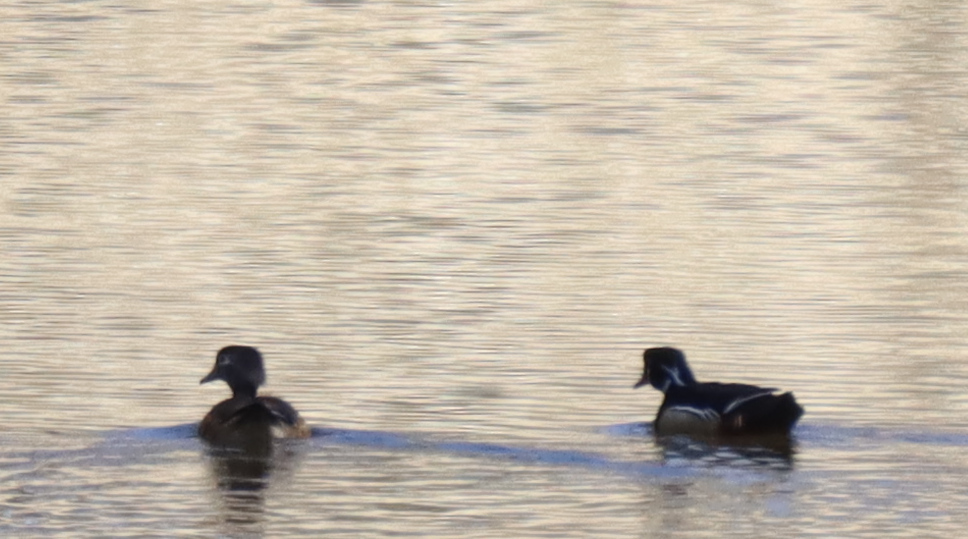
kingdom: Animalia
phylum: Chordata
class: Aves
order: Anseriformes
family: Anatidae
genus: Aix
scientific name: Aix sponsa
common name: Wood duck
